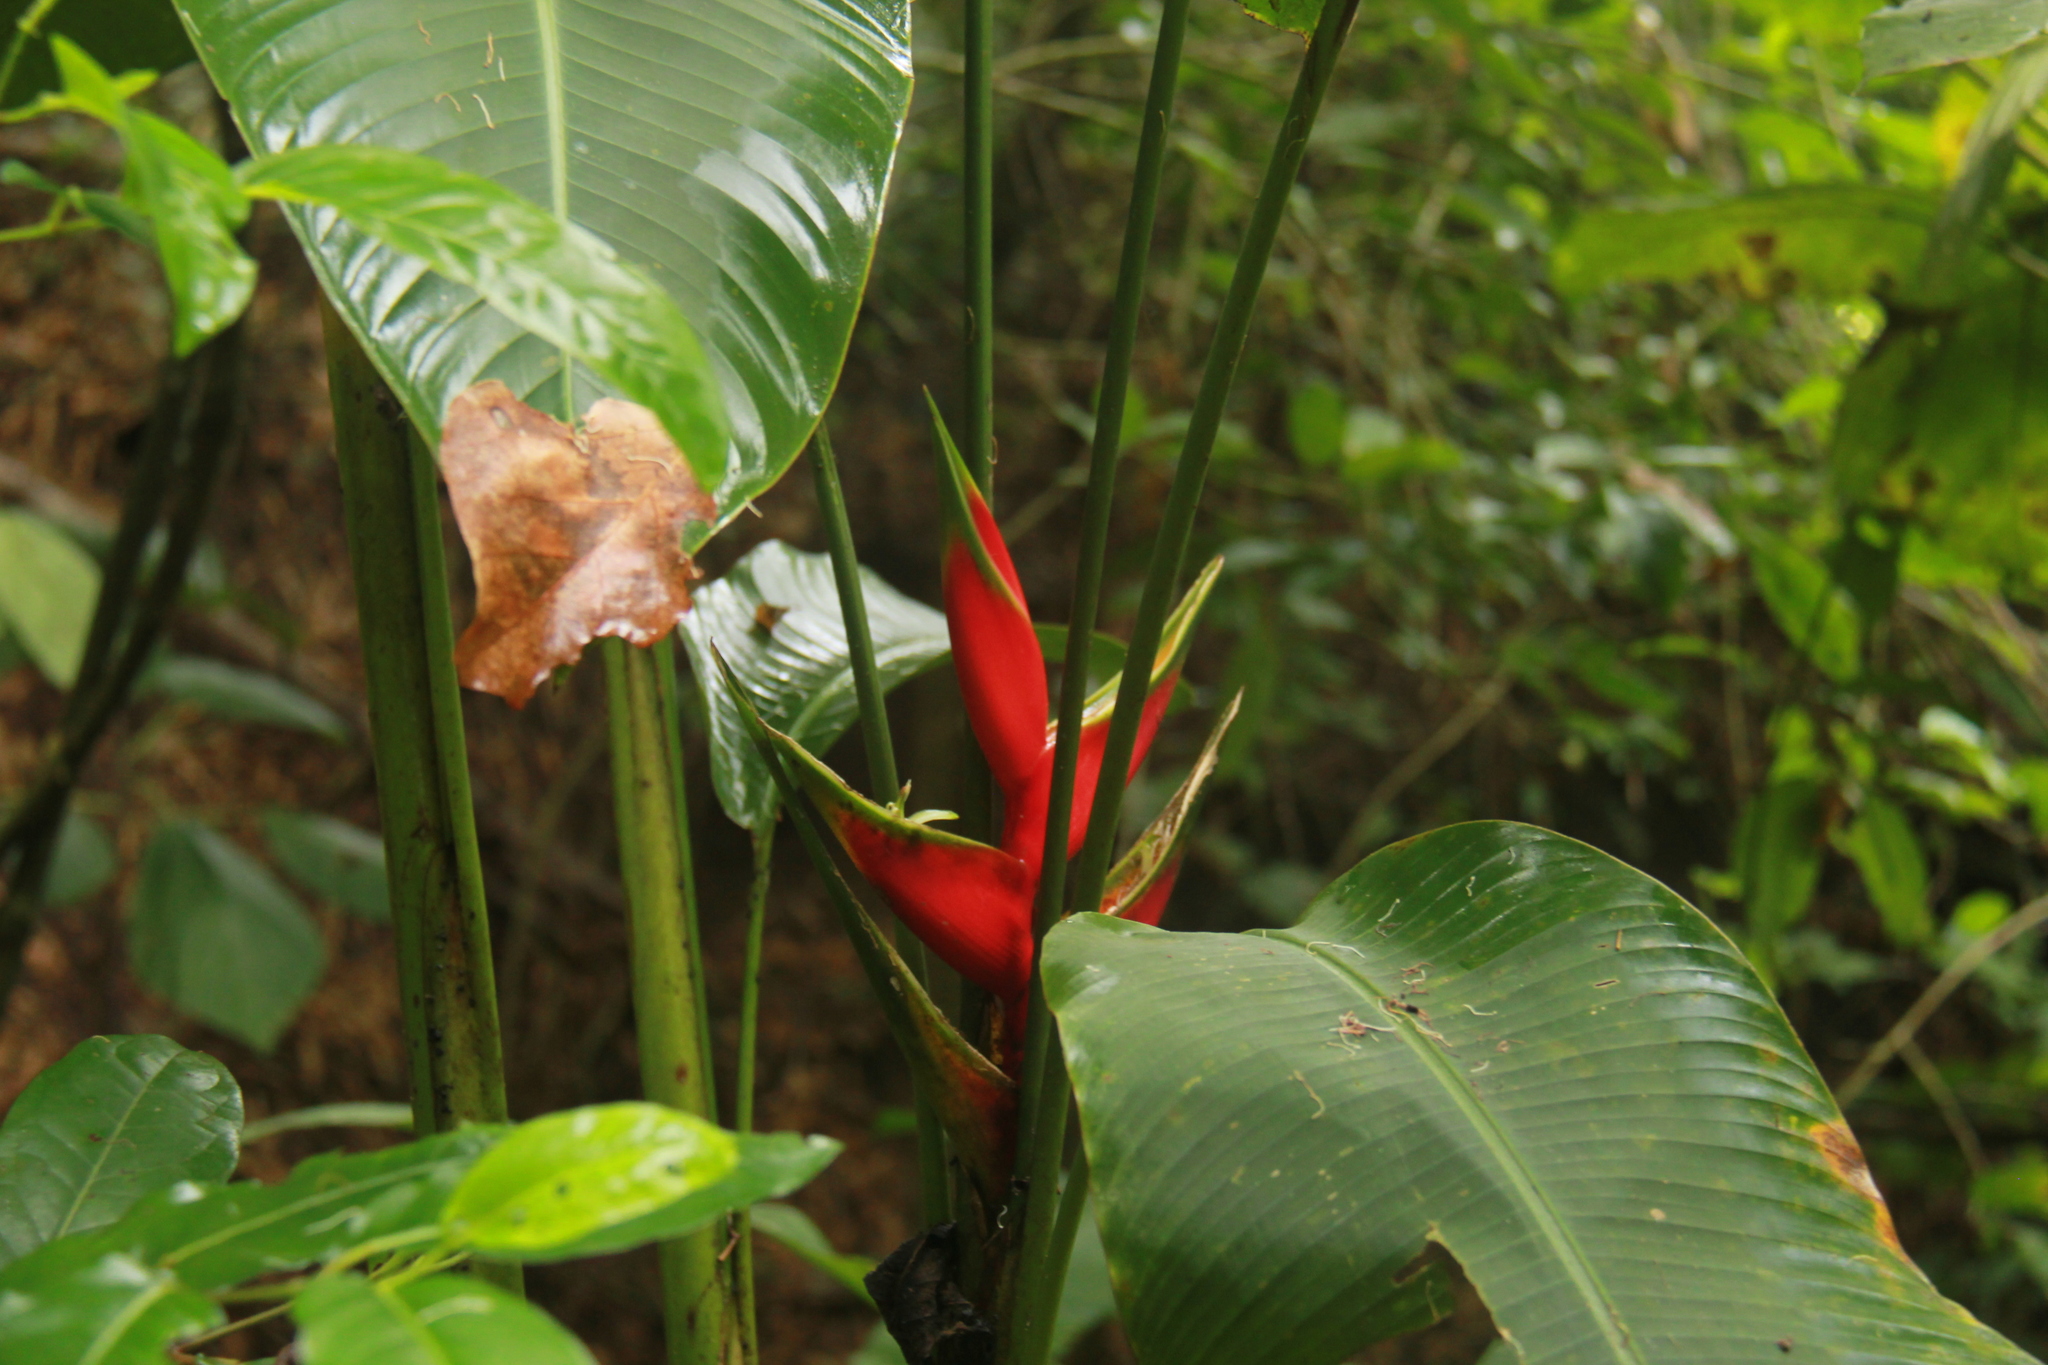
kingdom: Plantae
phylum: Tracheophyta
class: Liliopsida
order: Zingiberales
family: Heliconiaceae
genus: Heliconia
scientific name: Heliconia bihai
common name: Macaw flower
